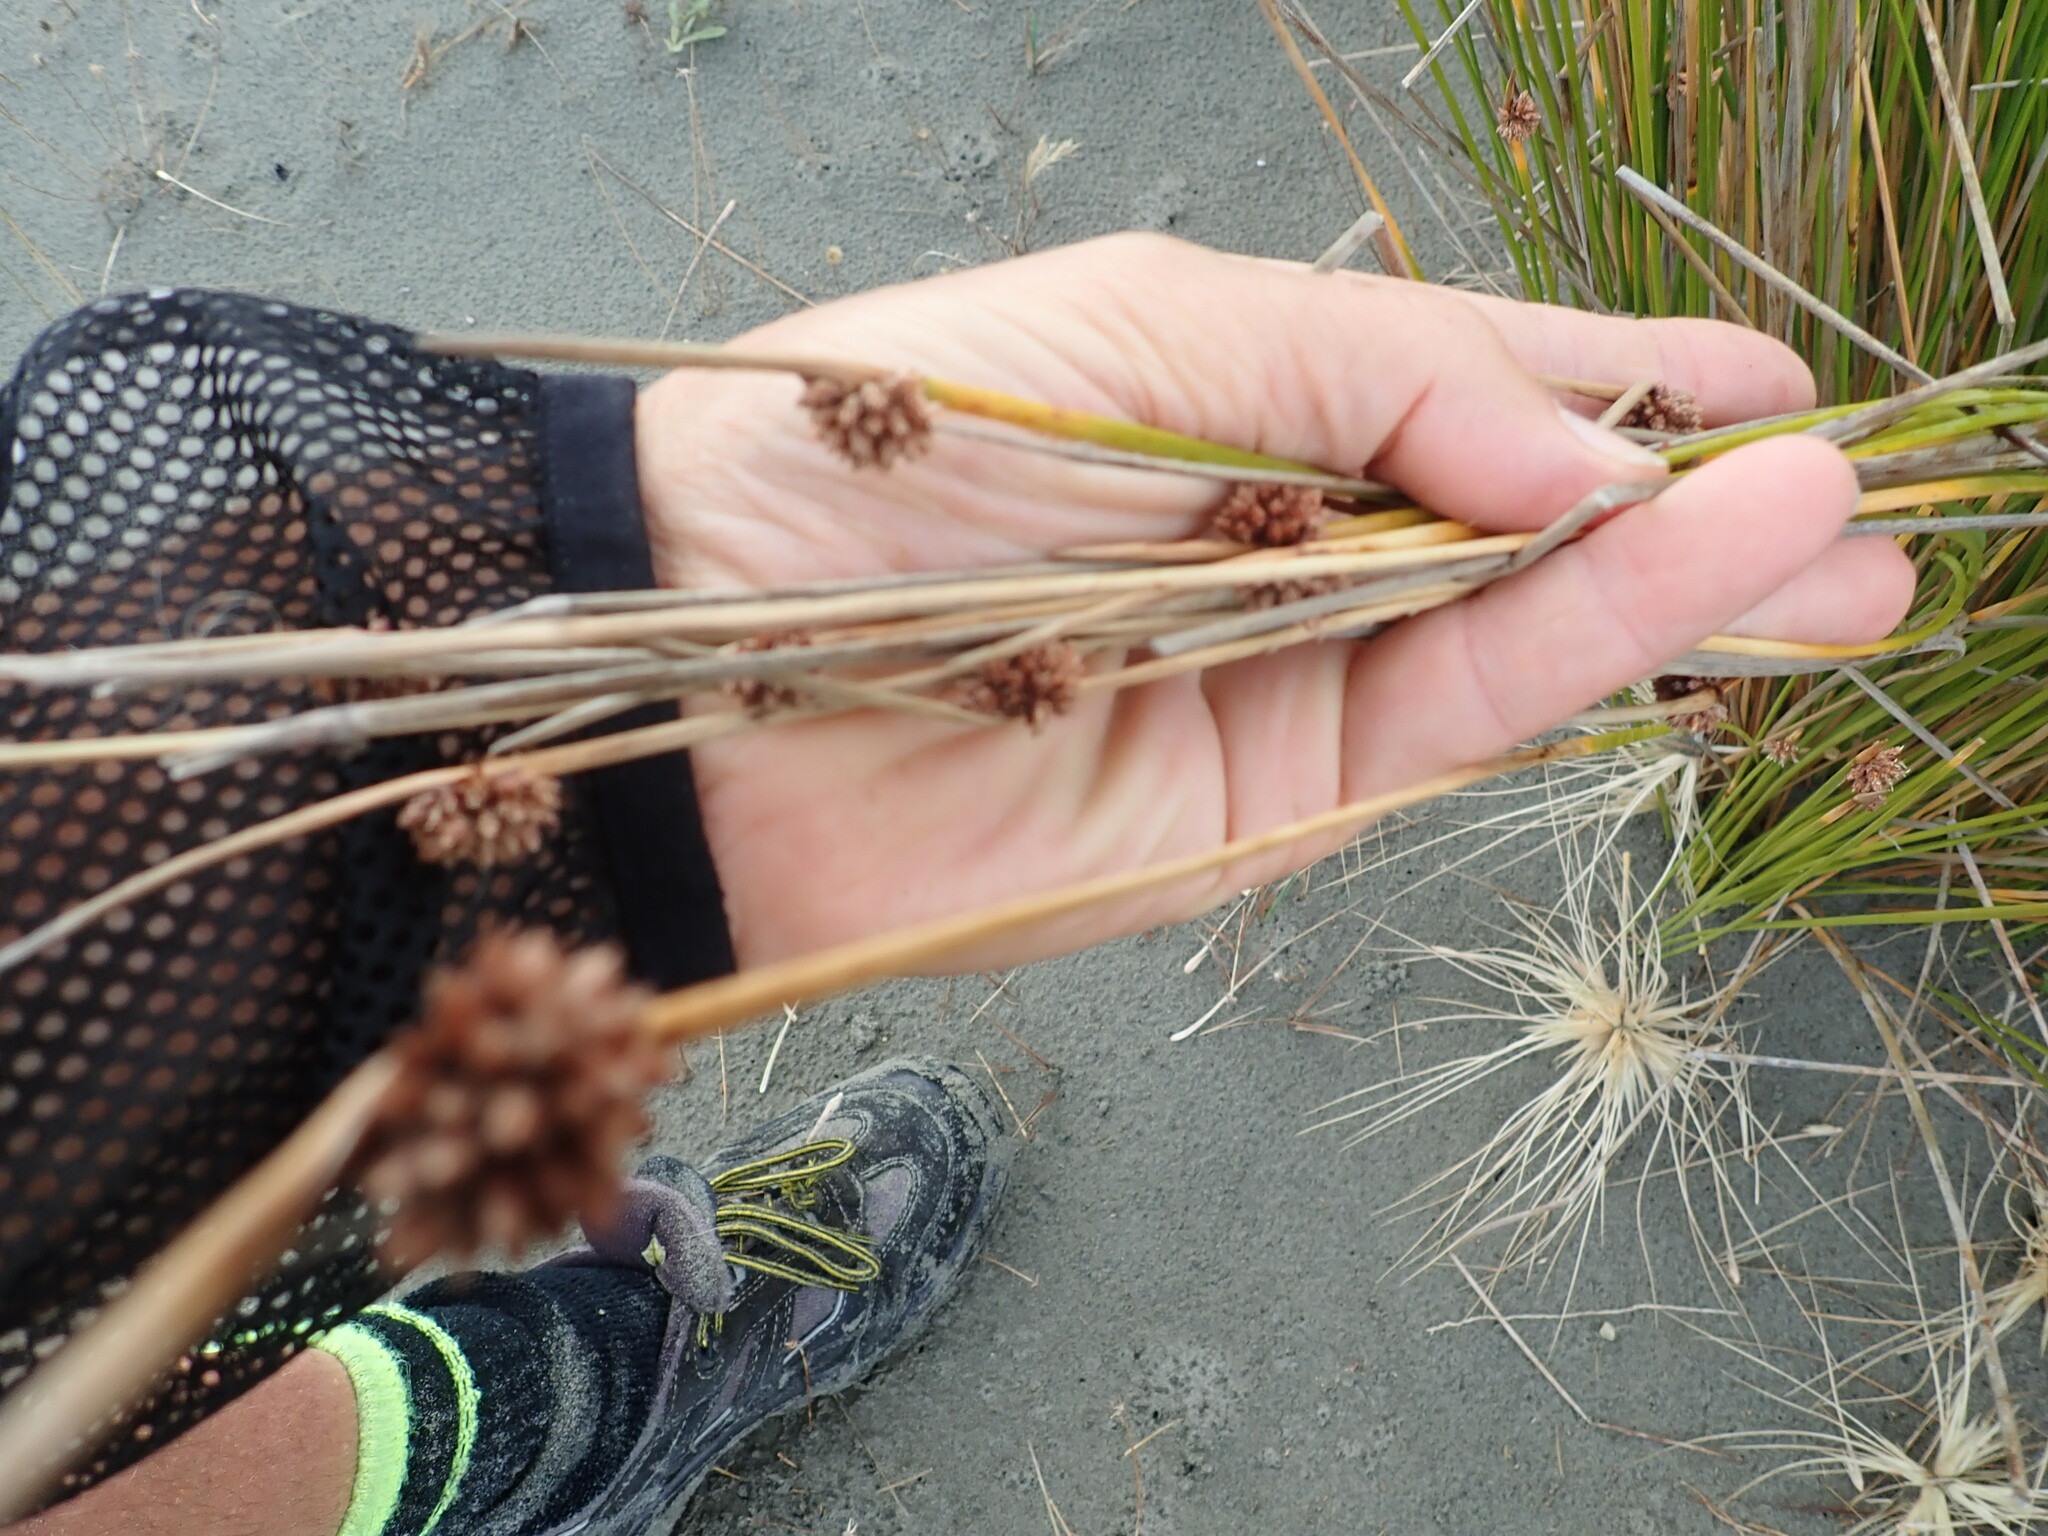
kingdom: Plantae
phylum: Tracheophyta
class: Liliopsida
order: Poales
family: Cyperaceae
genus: Ficinia
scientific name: Ficinia nodosa
